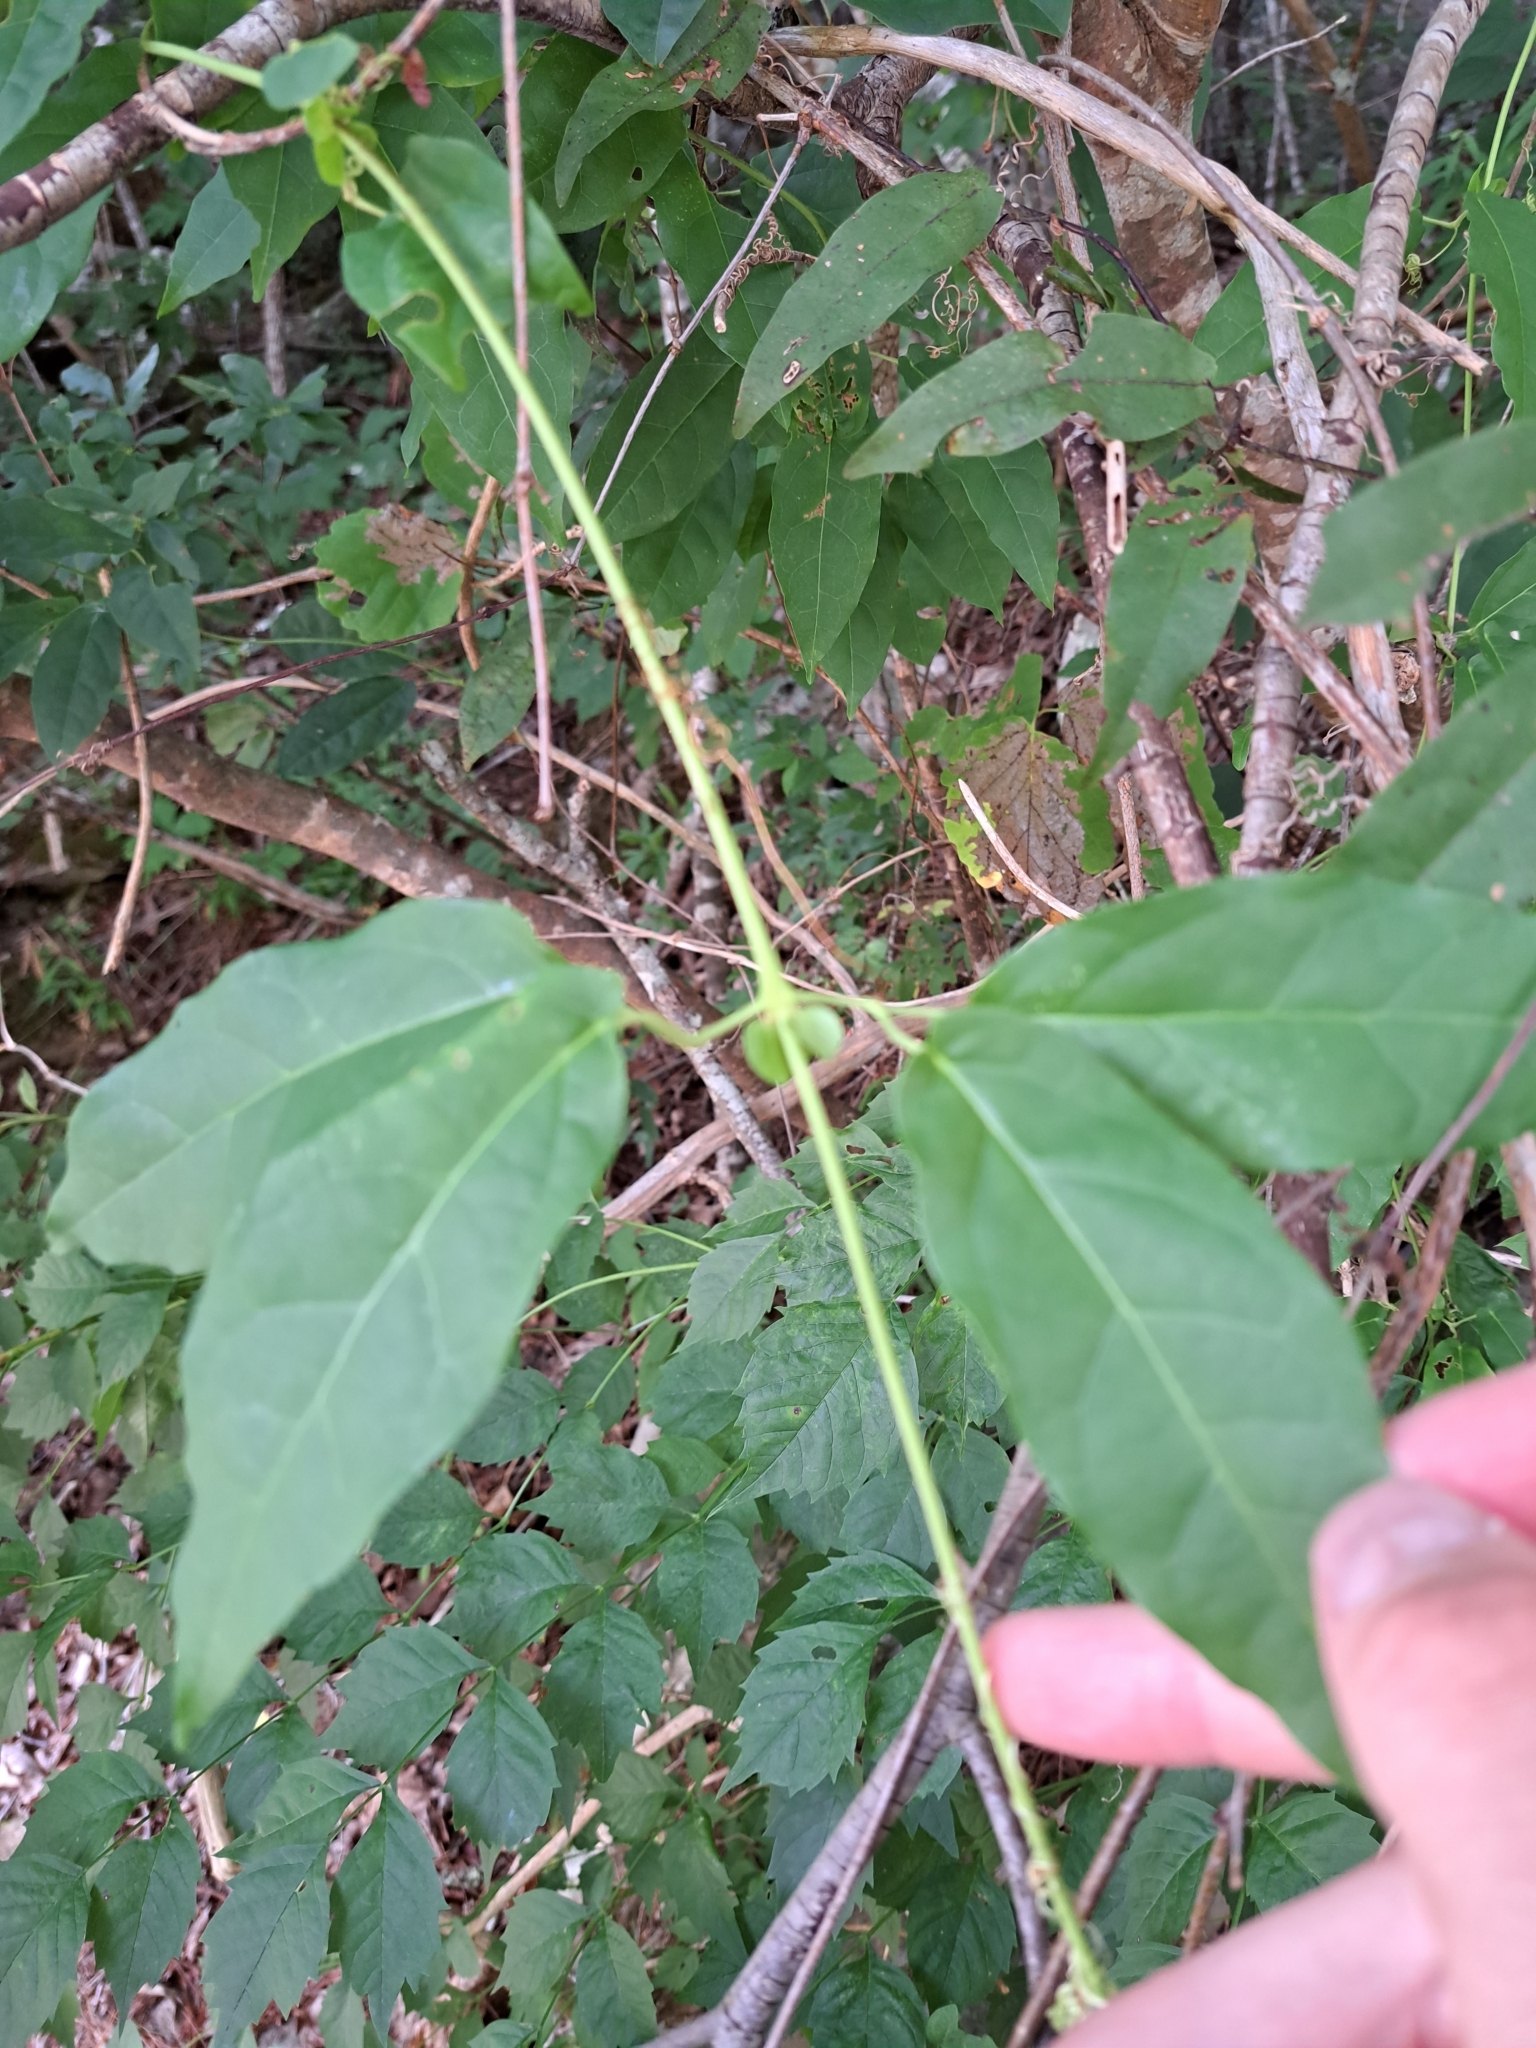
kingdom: Plantae
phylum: Tracheophyta
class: Magnoliopsida
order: Lamiales
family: Bignoniaceae
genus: Bignonia
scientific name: Bignonia capreolata
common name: Crossvine
